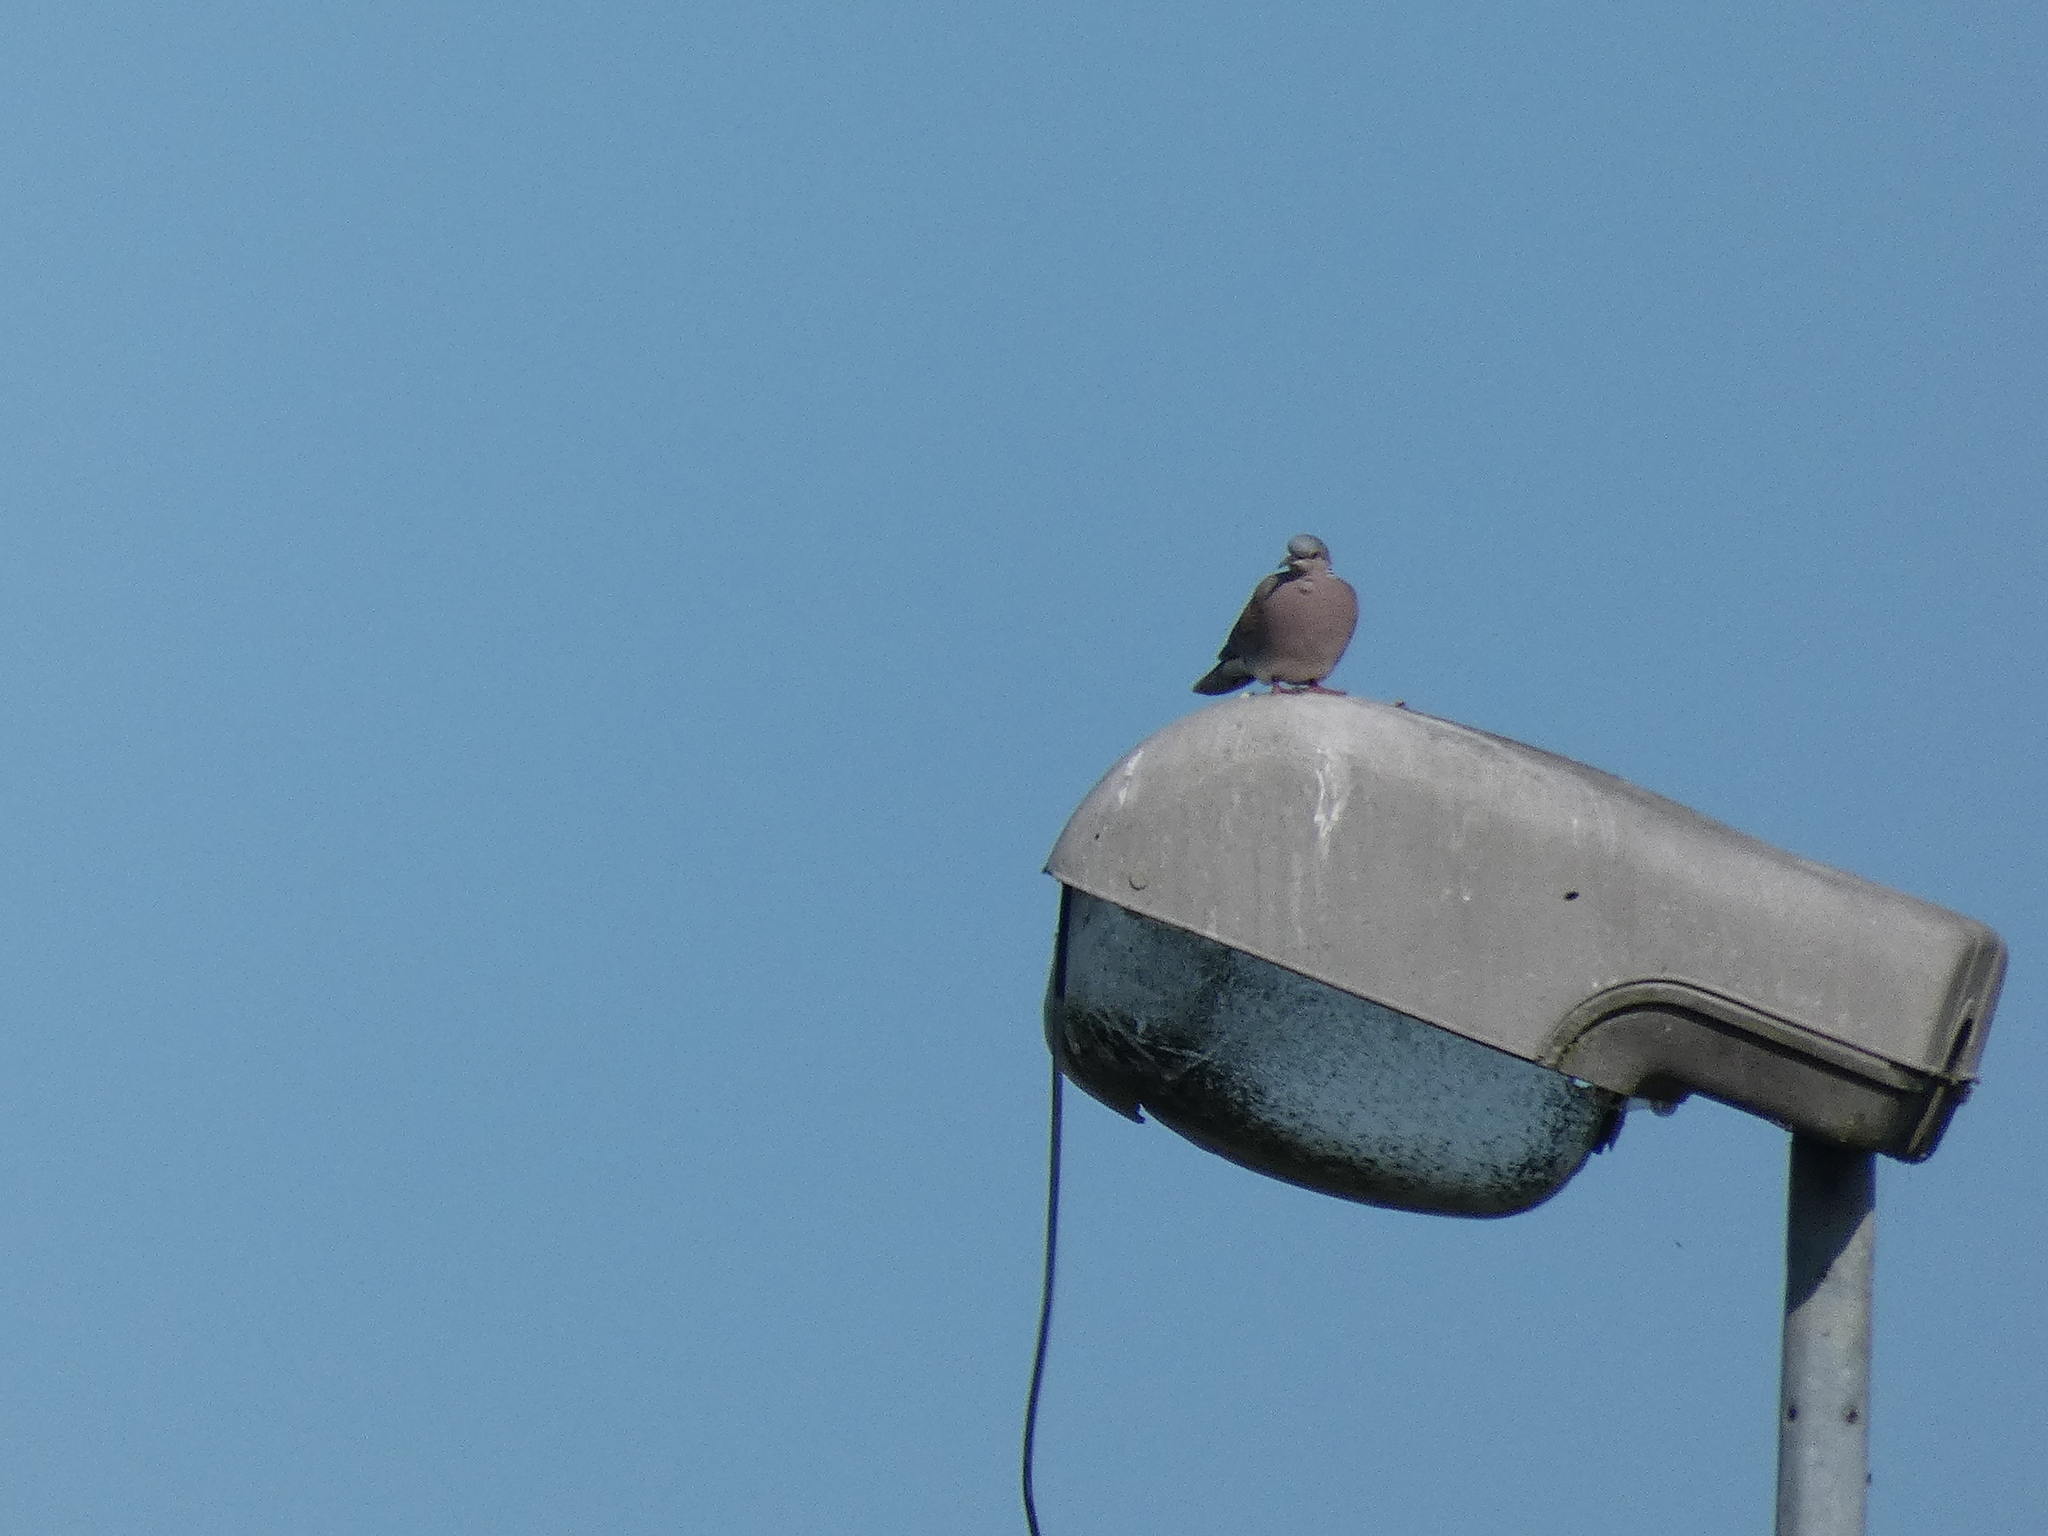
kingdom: Animalia
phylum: Chordata
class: Aves
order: Columbiformes
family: Columbidae
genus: Streptopelia
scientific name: Streptopelia turtur
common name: European turtle dove
